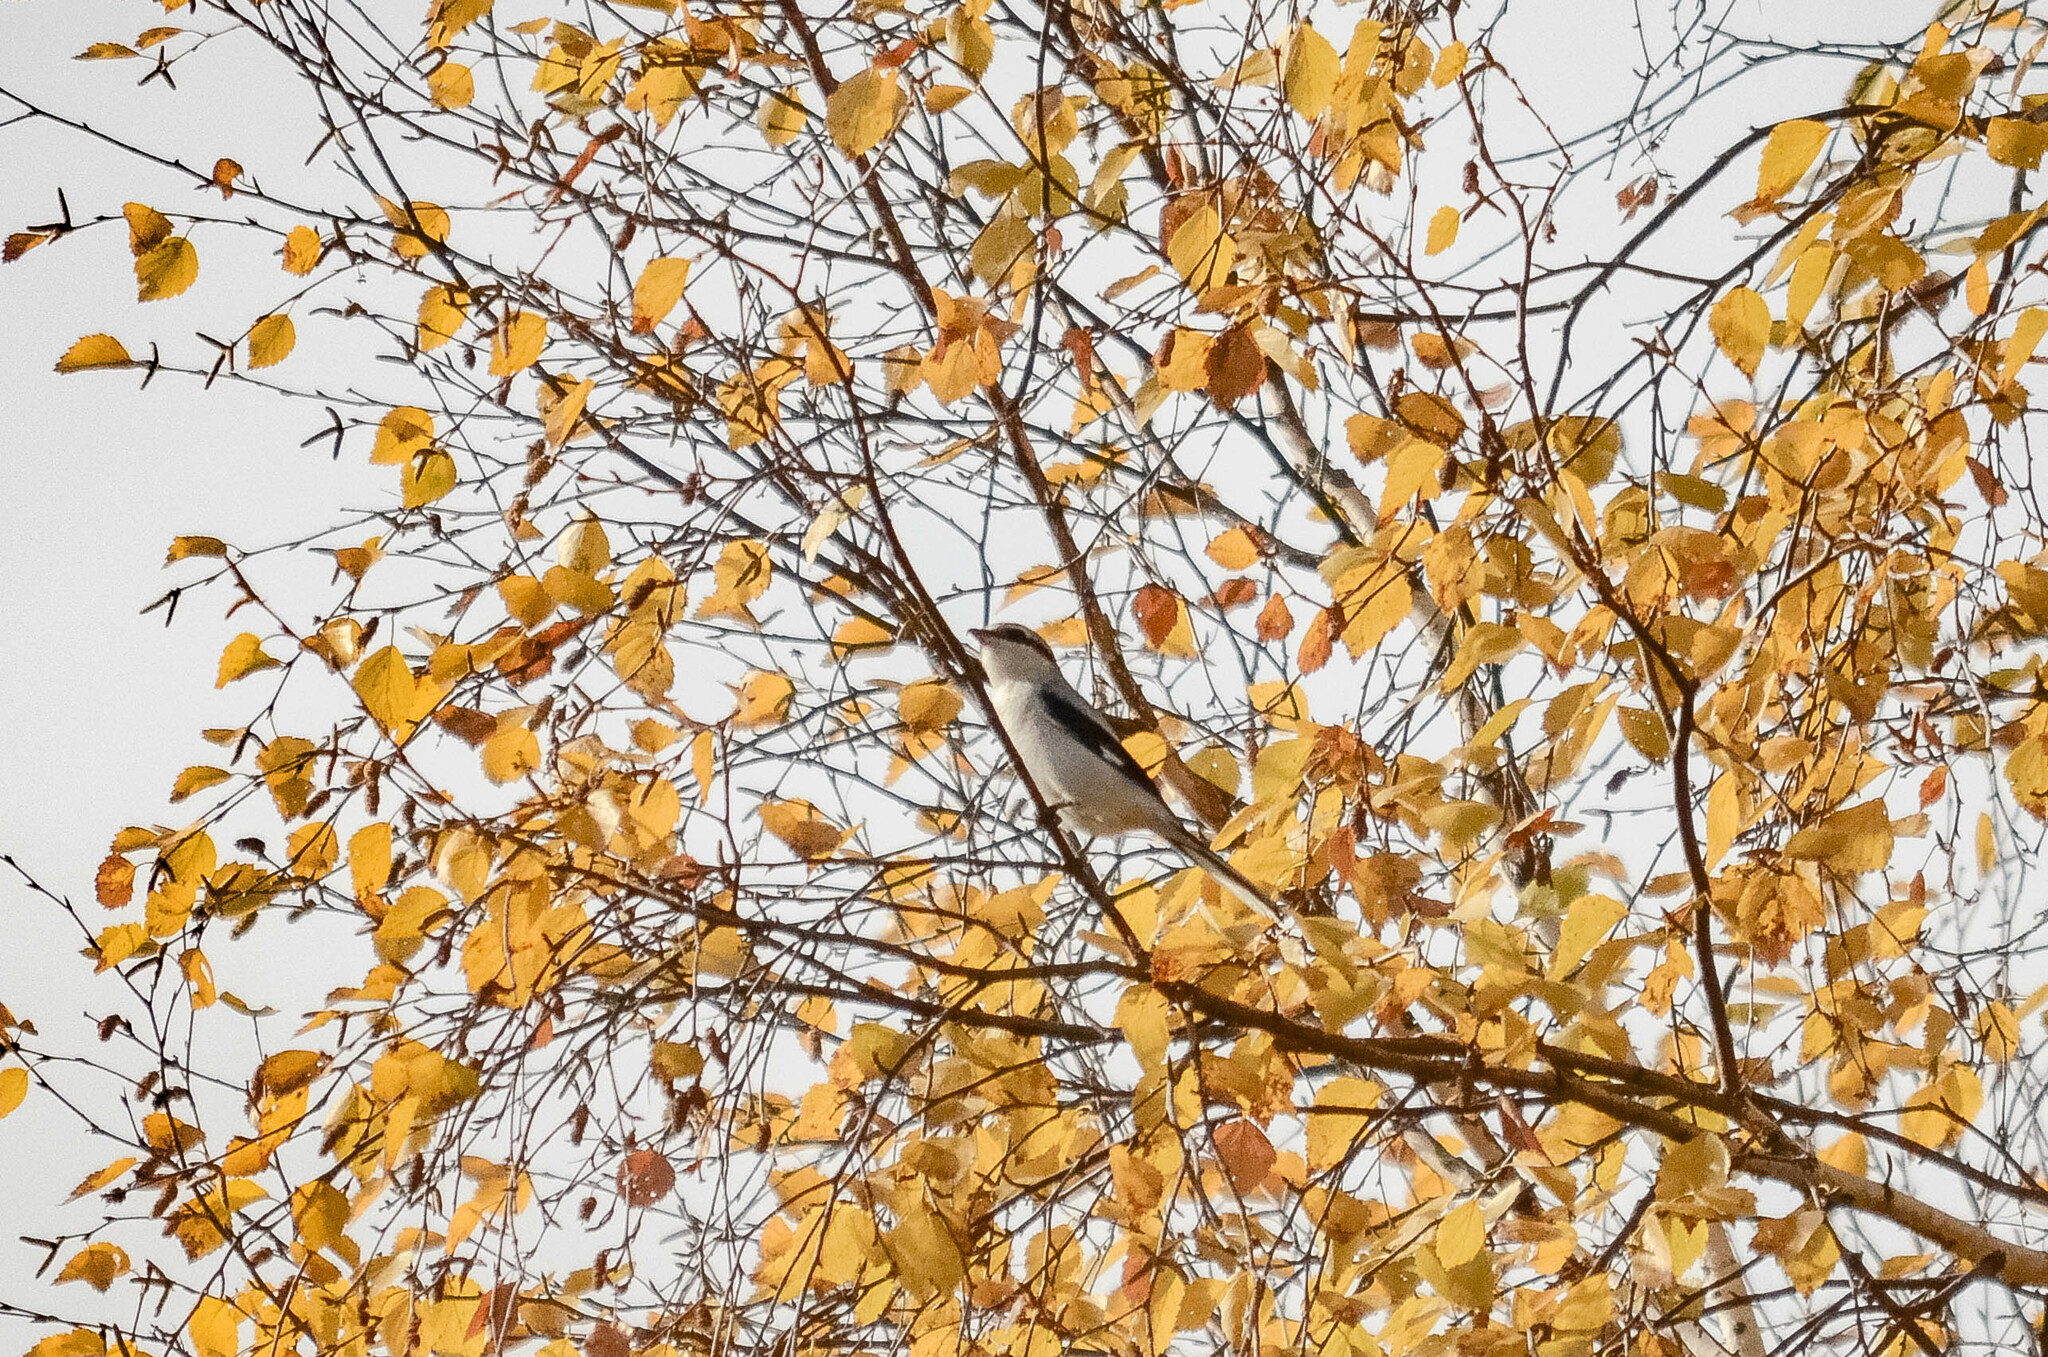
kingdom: Animalia
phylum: Chordata
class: Aves
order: Passeriformes
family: Laniidae
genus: Lanius
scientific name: Lanius excubitor
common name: Great grey shrike
